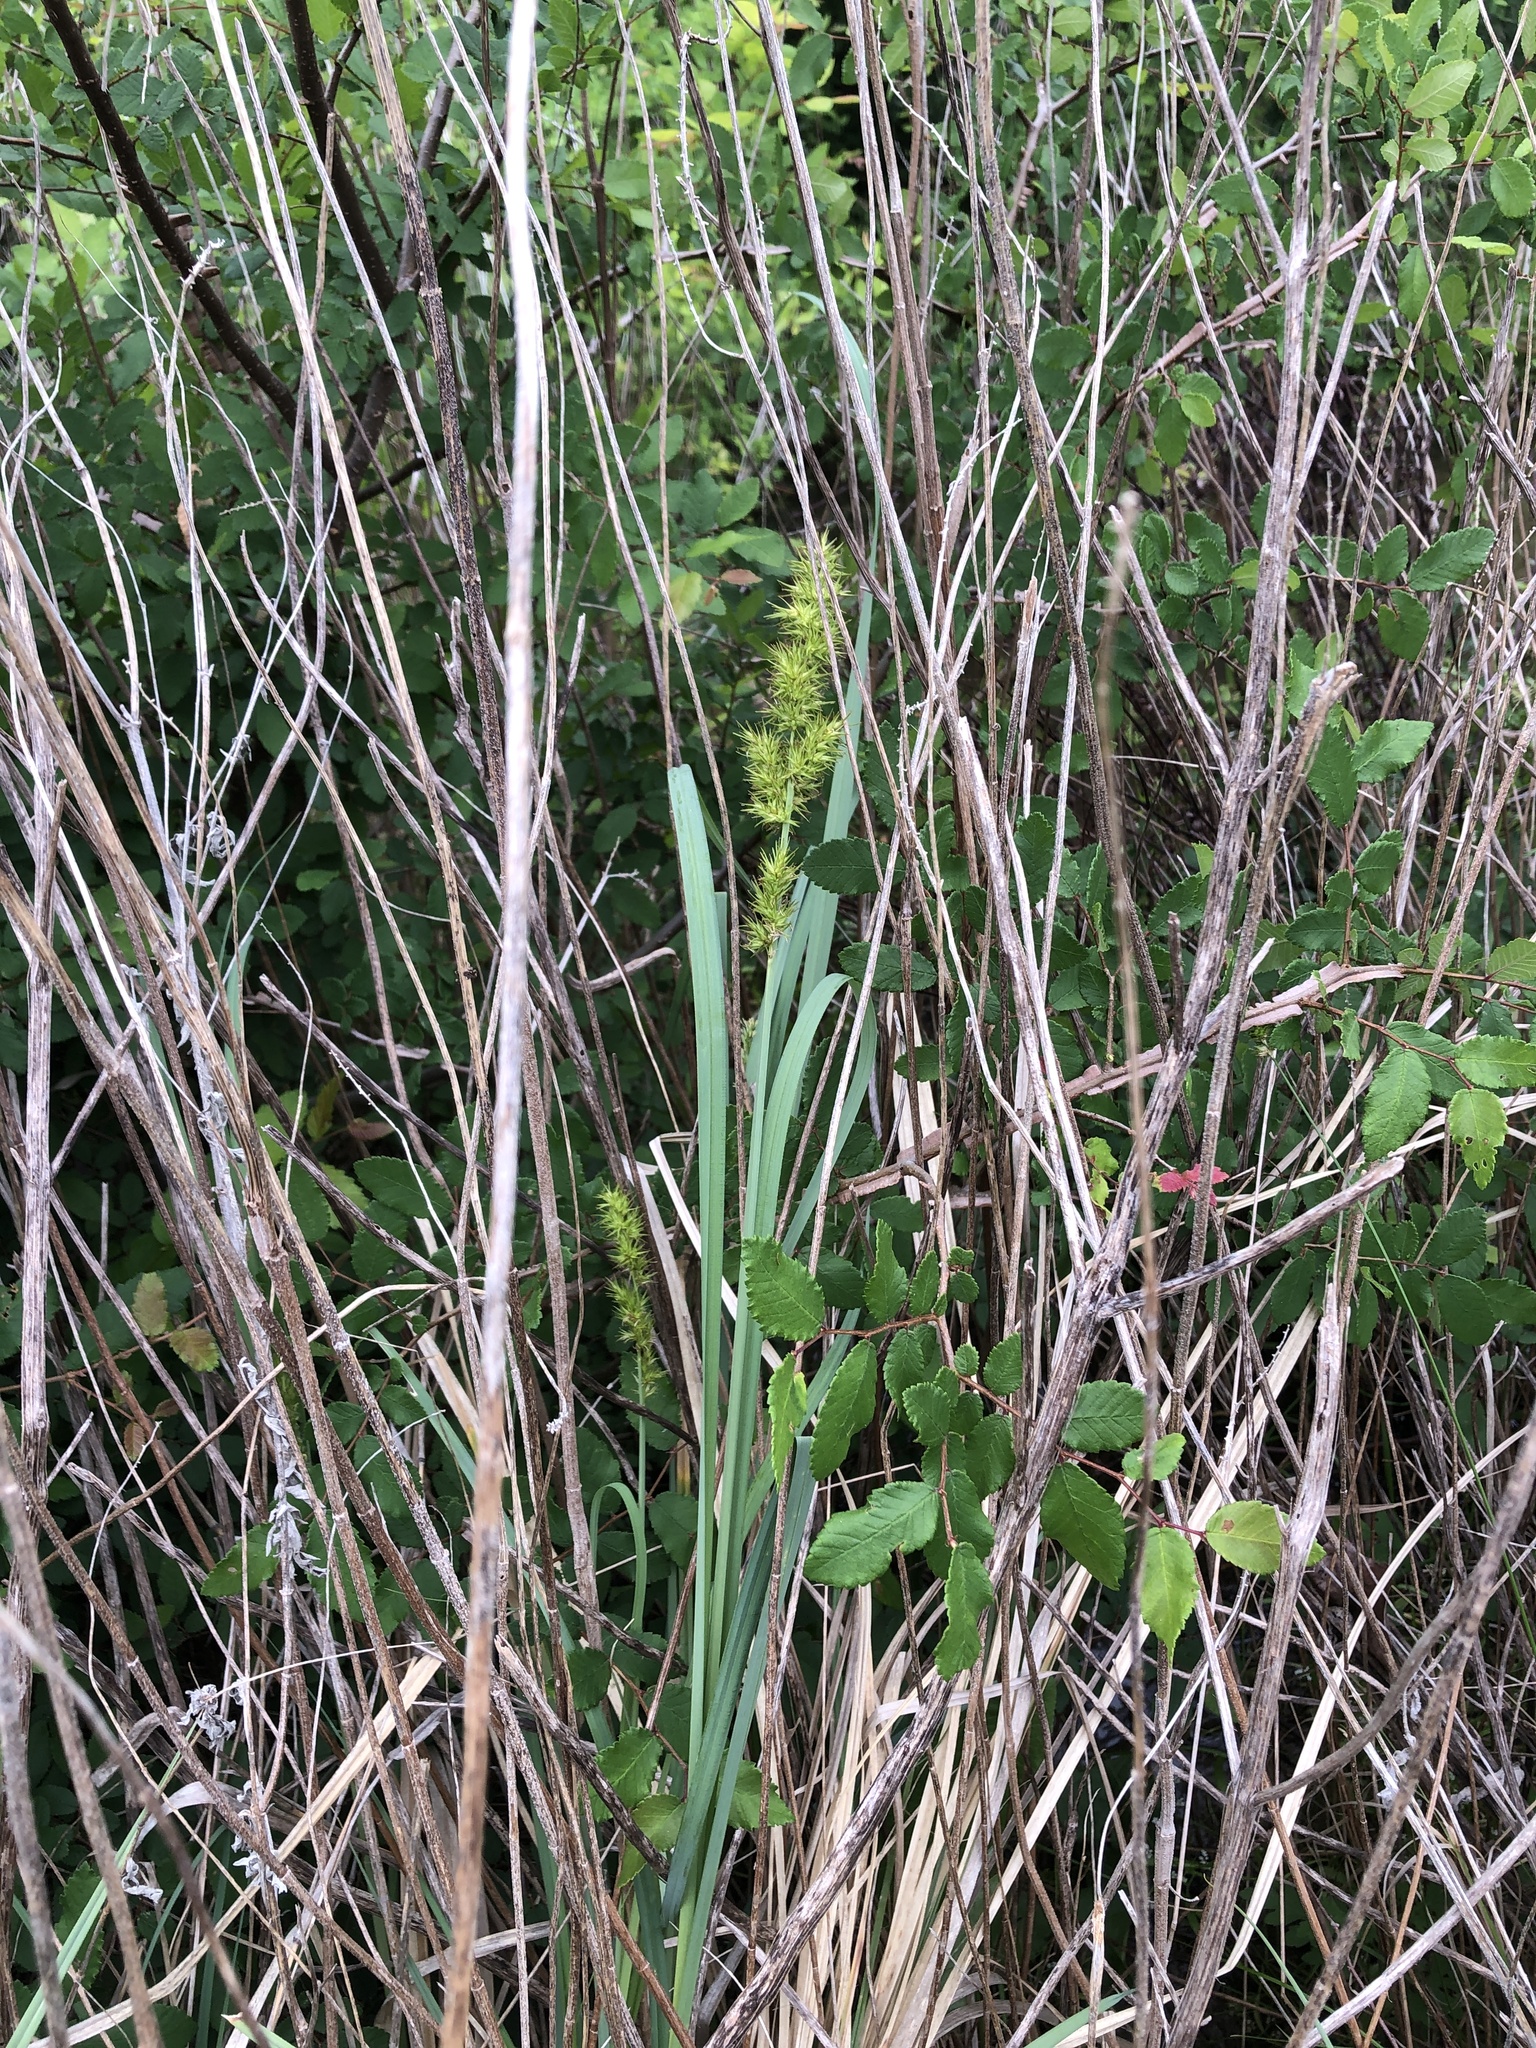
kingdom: Plantae
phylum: Tracheophyta
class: Liliopsida
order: Poales
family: Cyperaceae
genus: Carex
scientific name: Carex crus-corvi
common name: Crow-spur sedge
